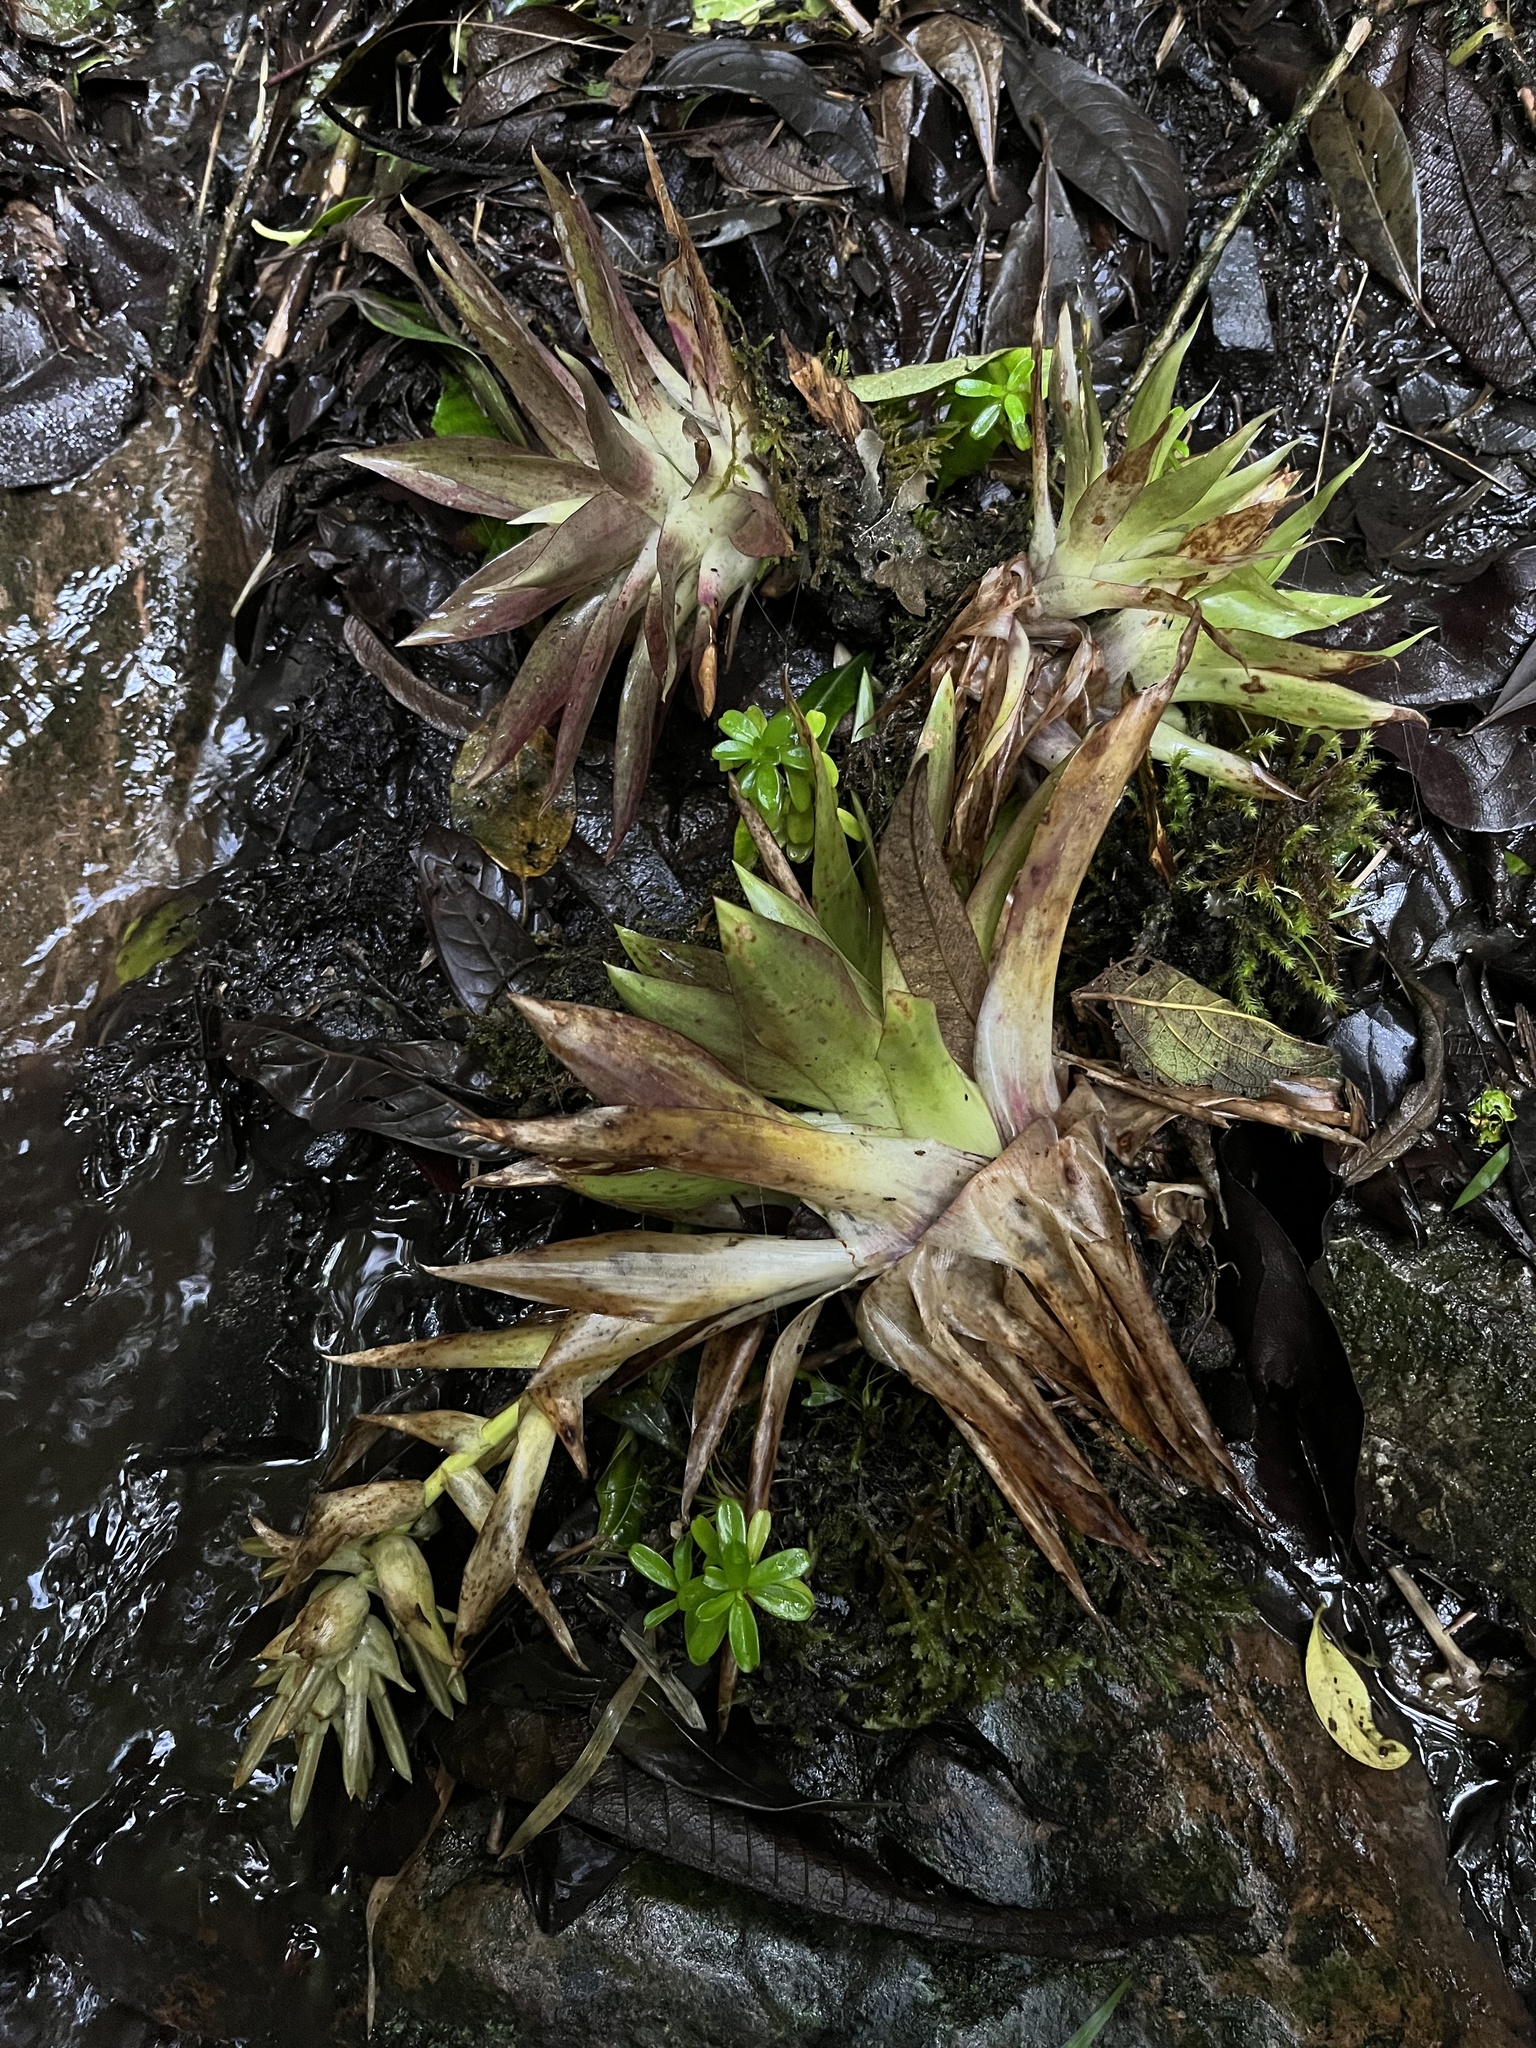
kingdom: Plantae
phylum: Tracheophyta
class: Liliopsida
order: Poales
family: Bromeliaceae
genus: Tillandsia
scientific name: Tillandsia biflora
